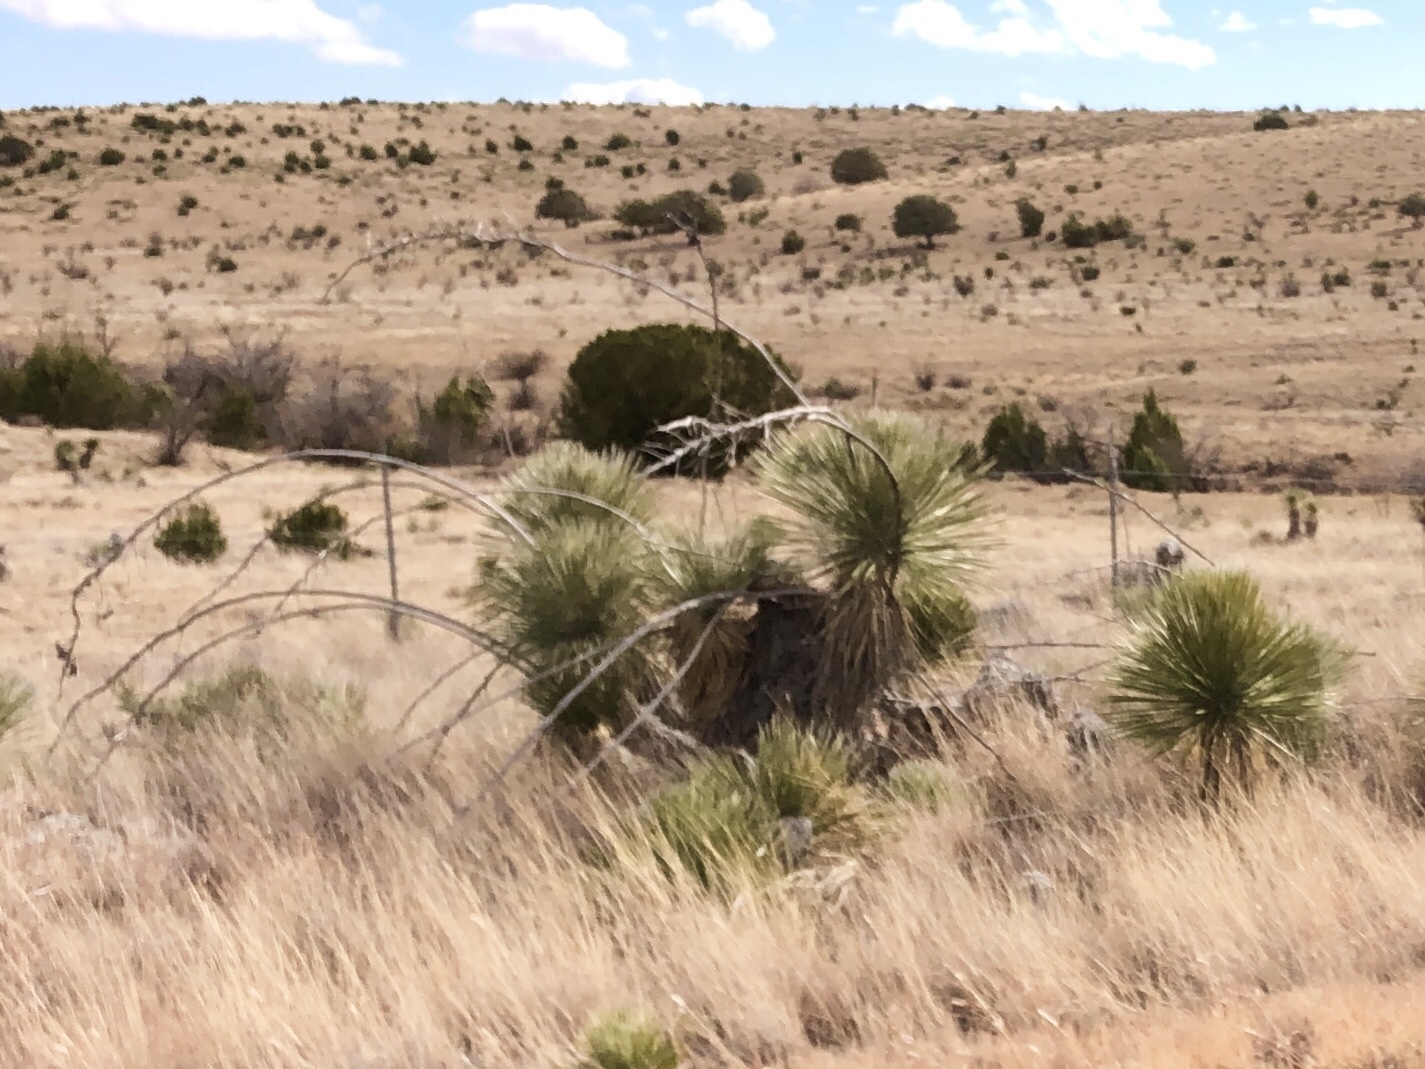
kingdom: Plantae
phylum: Tracheophyta
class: Liliopsida
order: Asparagales
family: Asparagaceae
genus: Yucca
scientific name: Yucca elata
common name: Palmella
